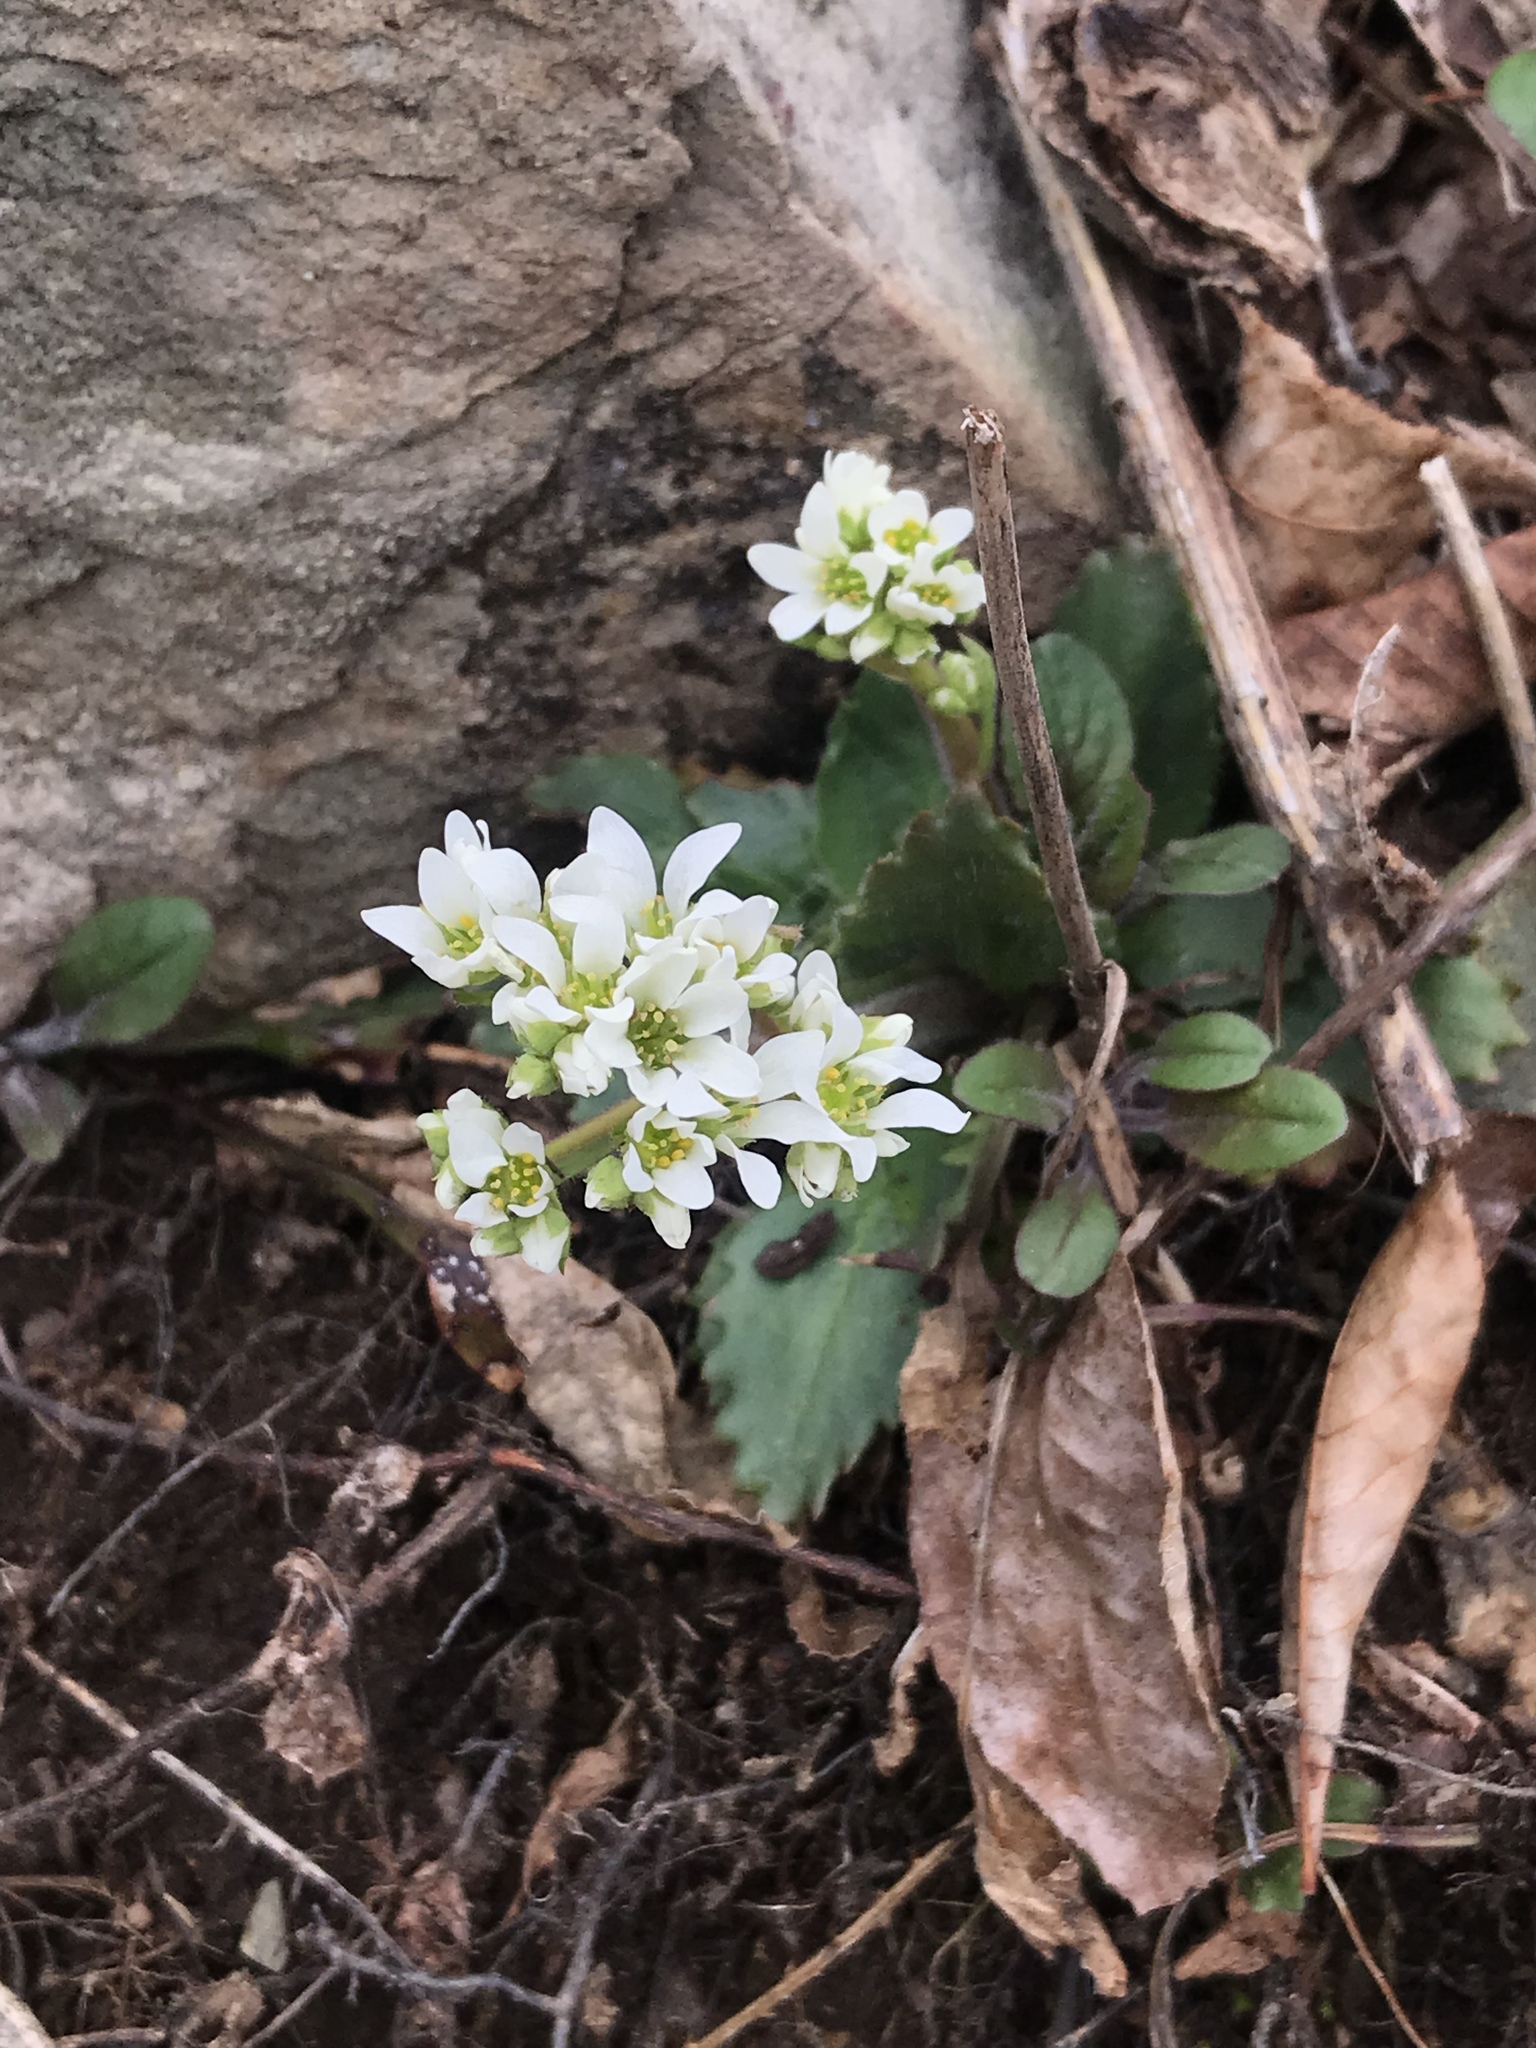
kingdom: Plantae
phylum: Tracheophyta
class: Magnoliopsida
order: Saxifragales
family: Saxifragaceae
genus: Micranthes
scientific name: Micranthes virginiensis
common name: Early saxifrage
